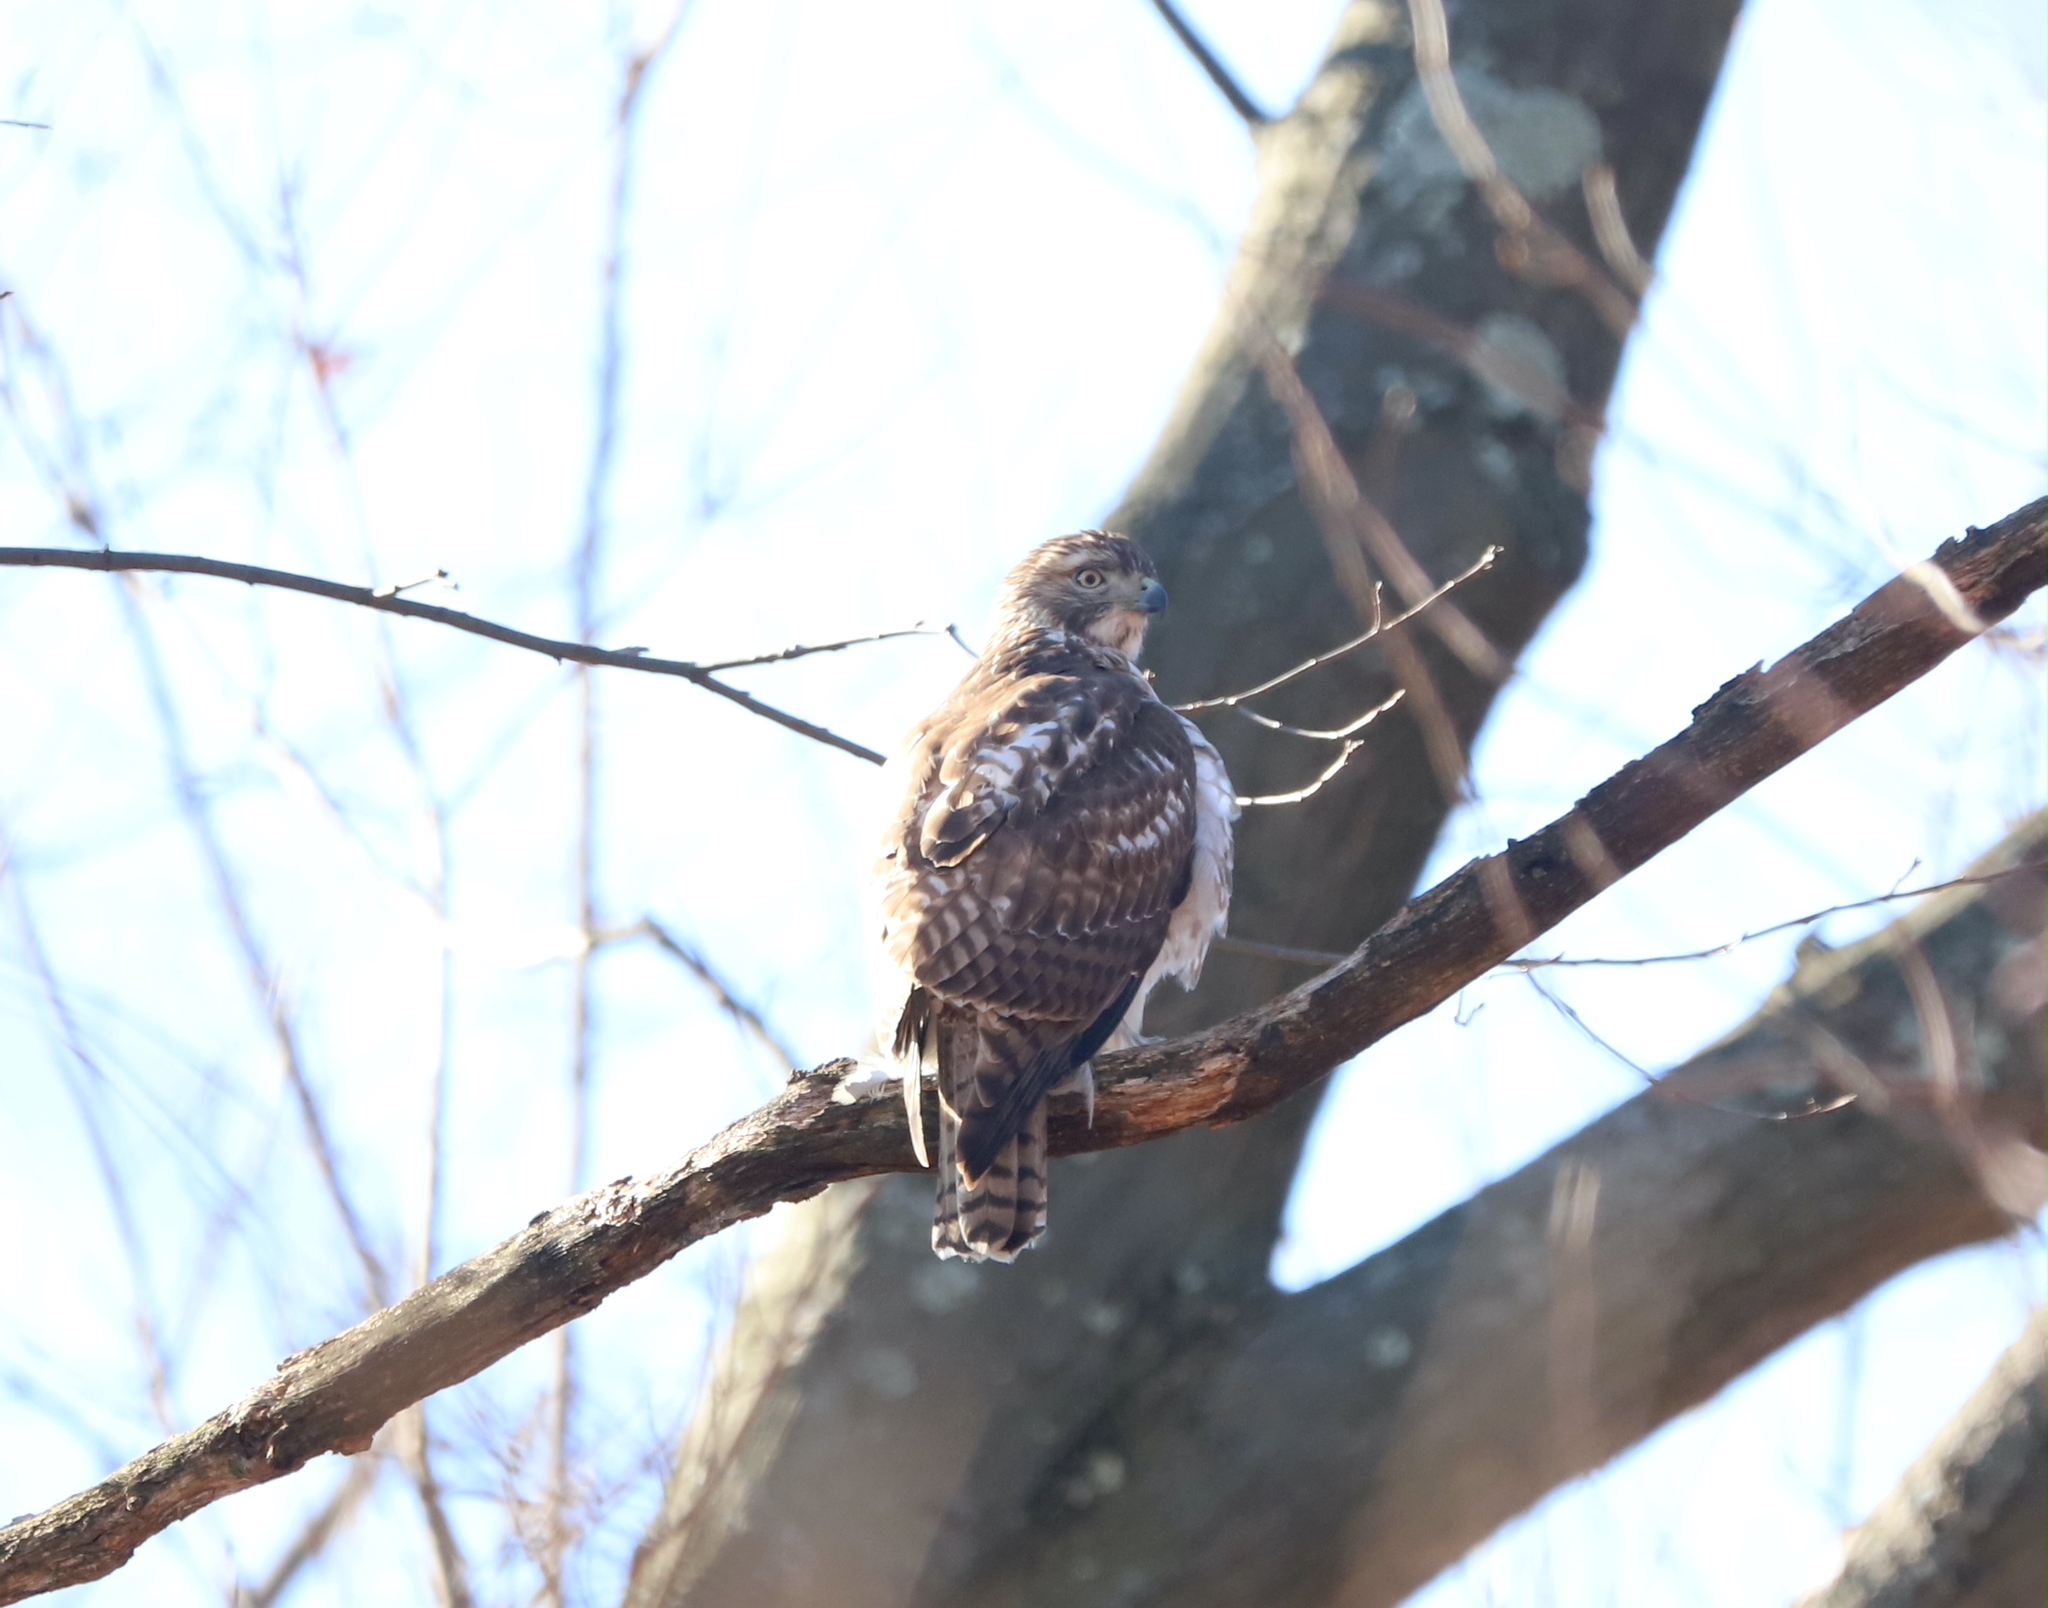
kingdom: Animalia
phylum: Chordata
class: Aves
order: Accipitriformes
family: Accipitridae
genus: Buteo
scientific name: Buteo jamaicensis
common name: Red-tailed hawk
